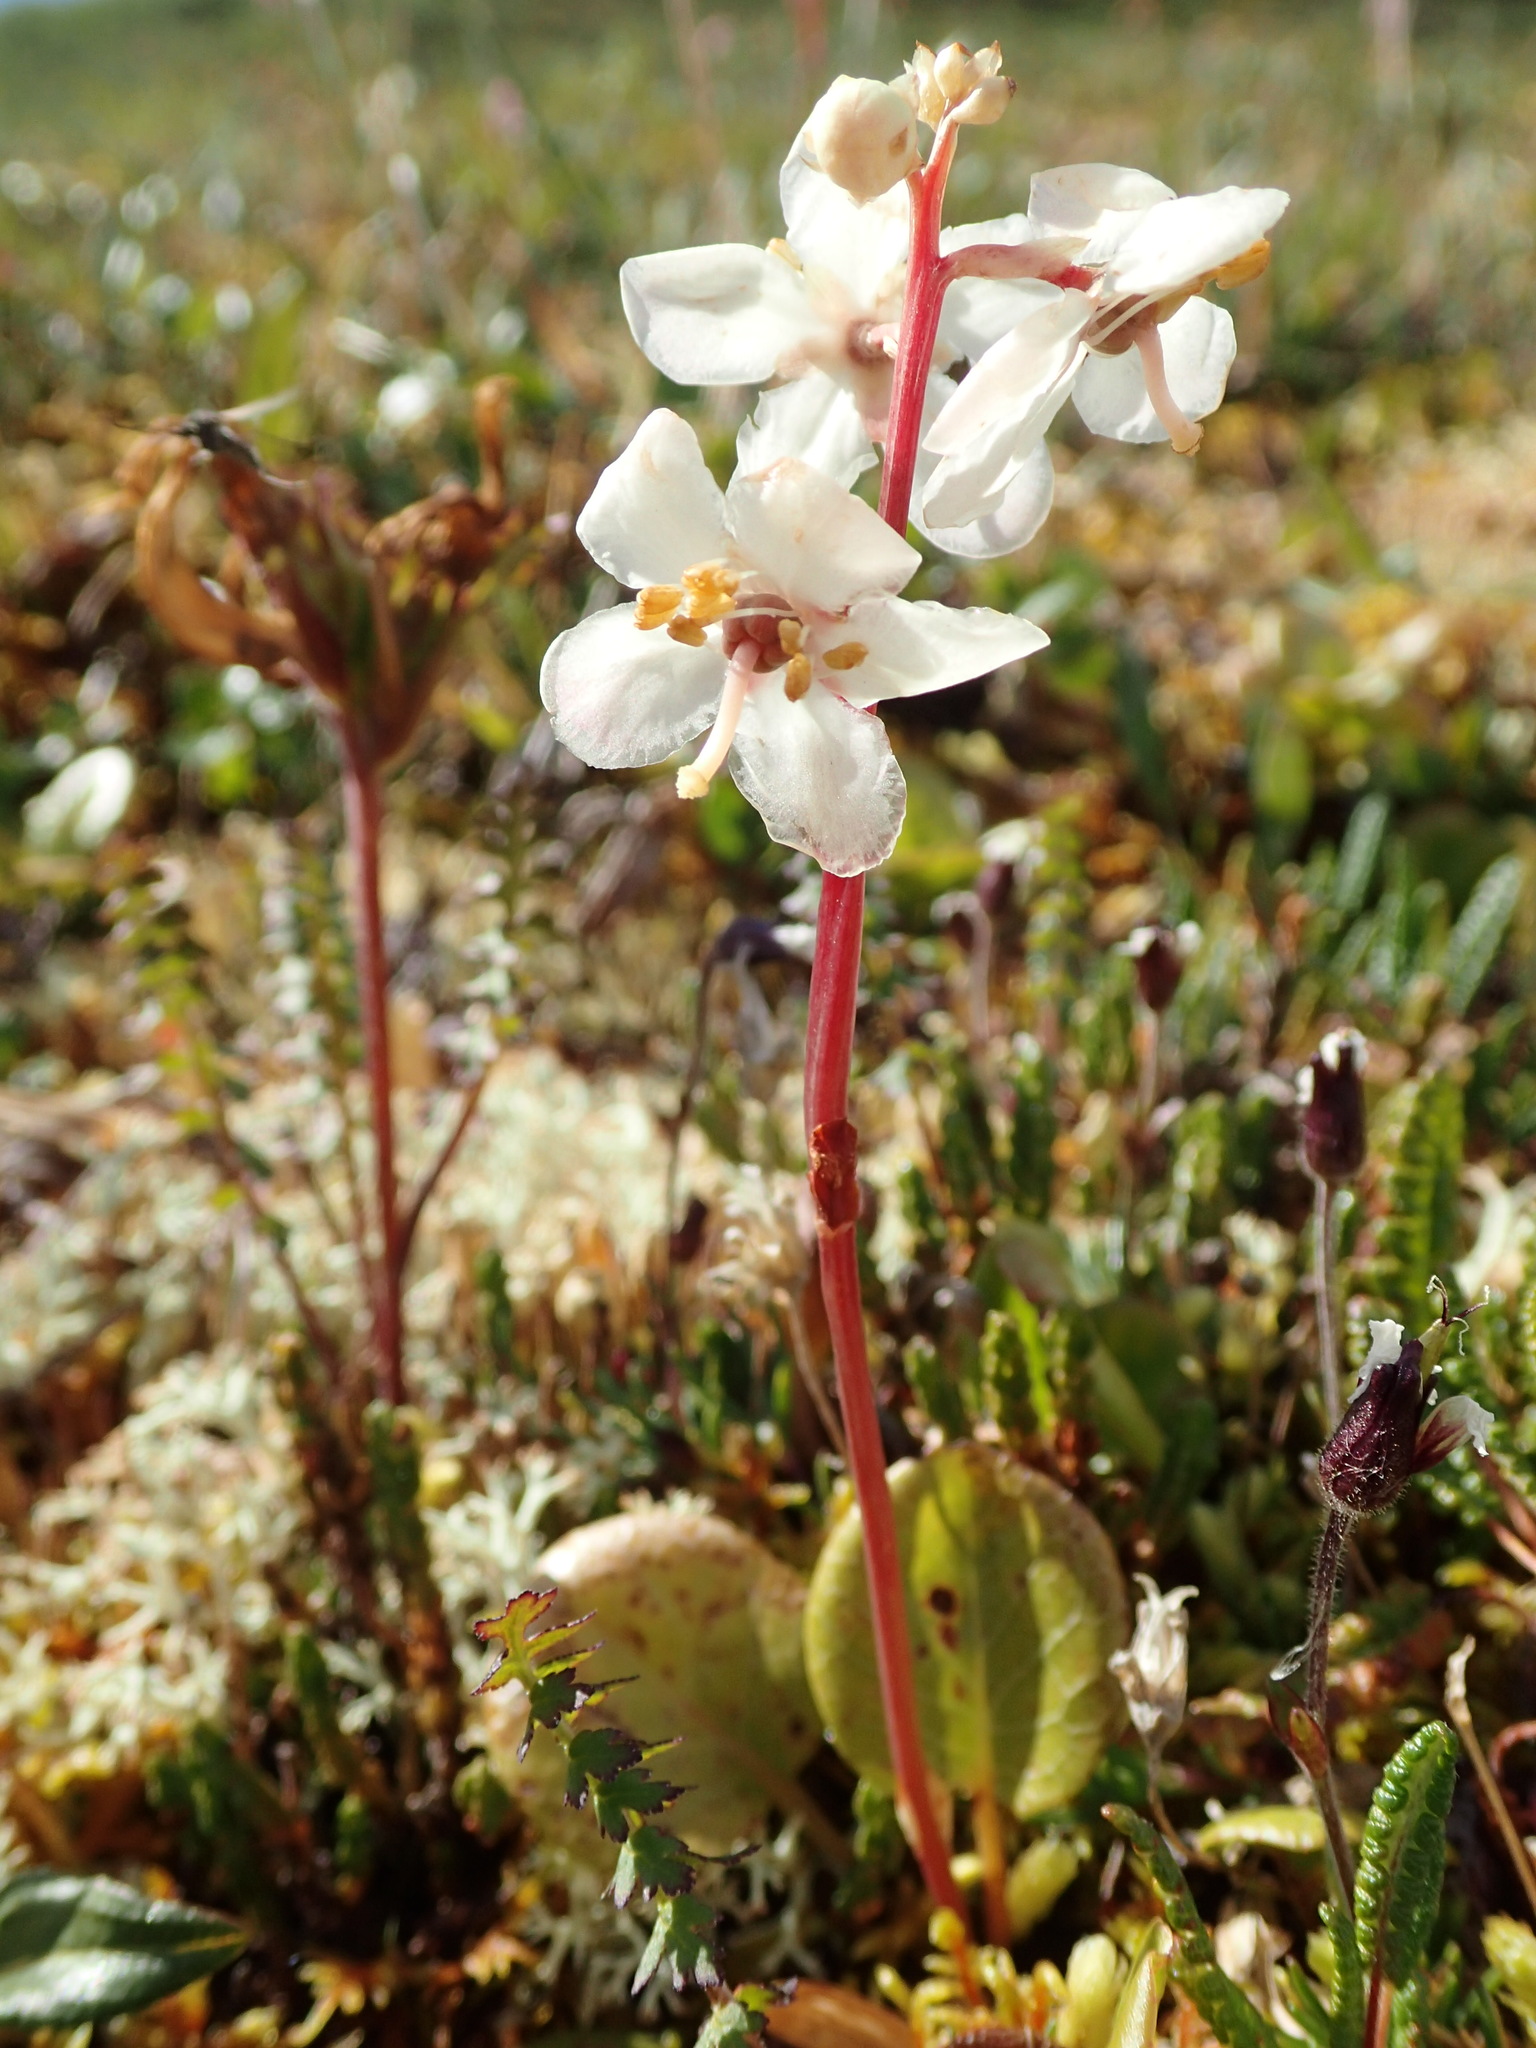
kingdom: Plantae
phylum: Tracheophyta
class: Magnoliopsida
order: Ericales
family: Ericaceae
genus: Pyrola
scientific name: Pyrola grandiflora
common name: Arctic pyrola
